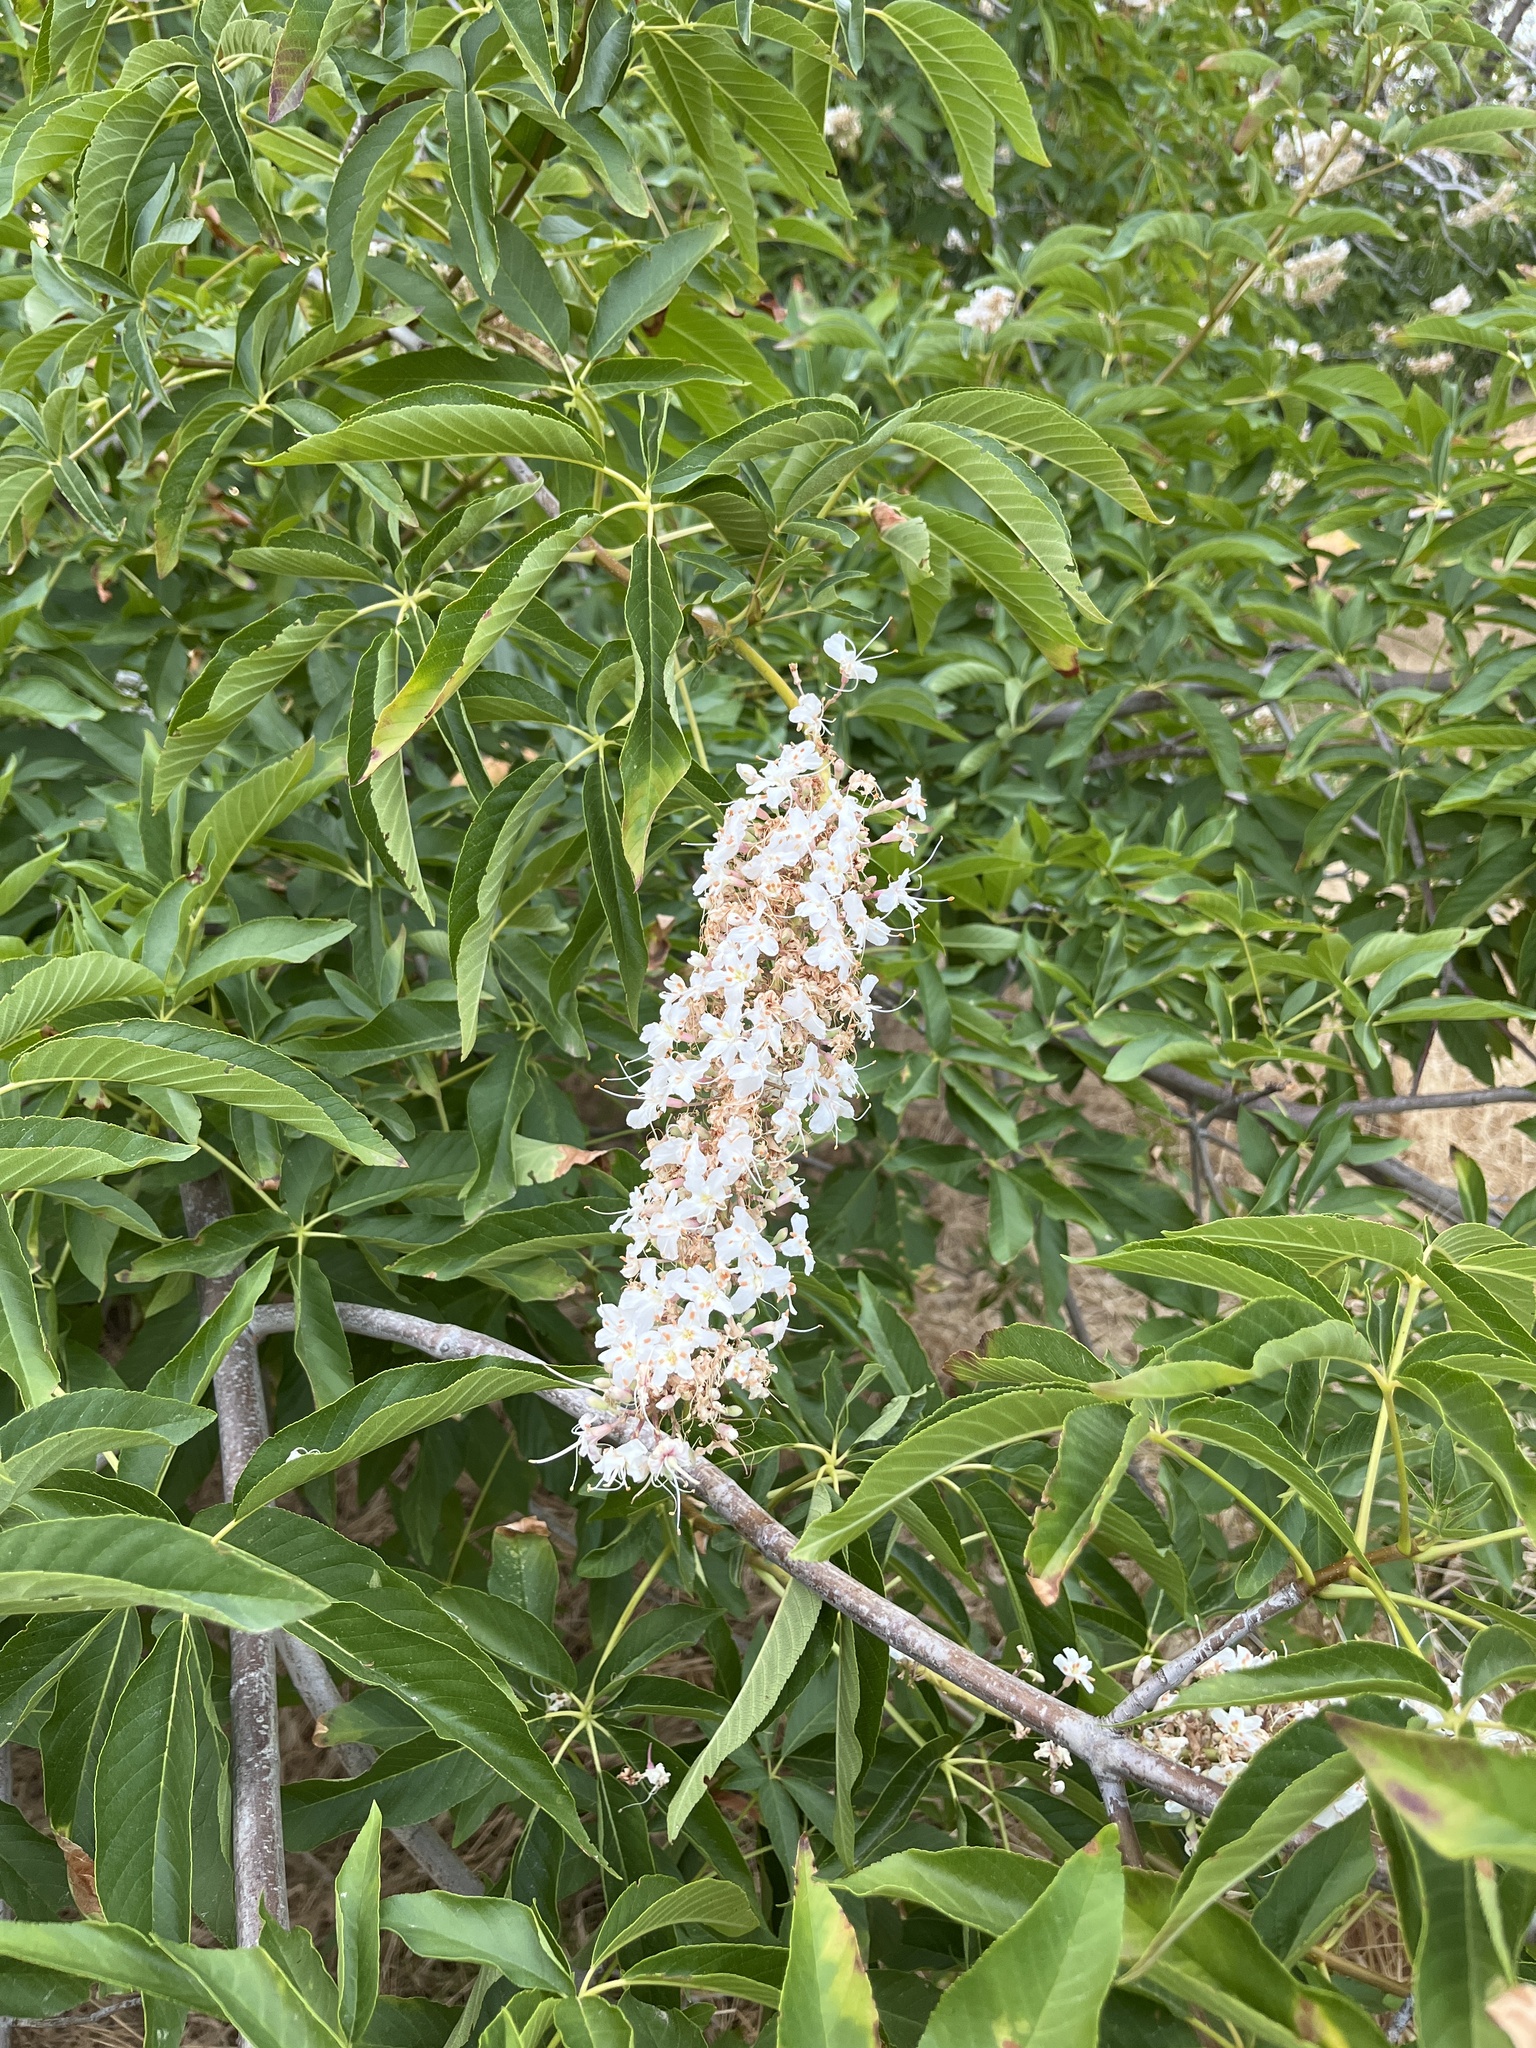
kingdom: Plantae
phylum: Tracheophyta
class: Magnoliopsida
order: Sapindales
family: Sapindaceae
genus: Aesculus
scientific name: Aesculus californica
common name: California buckeye
